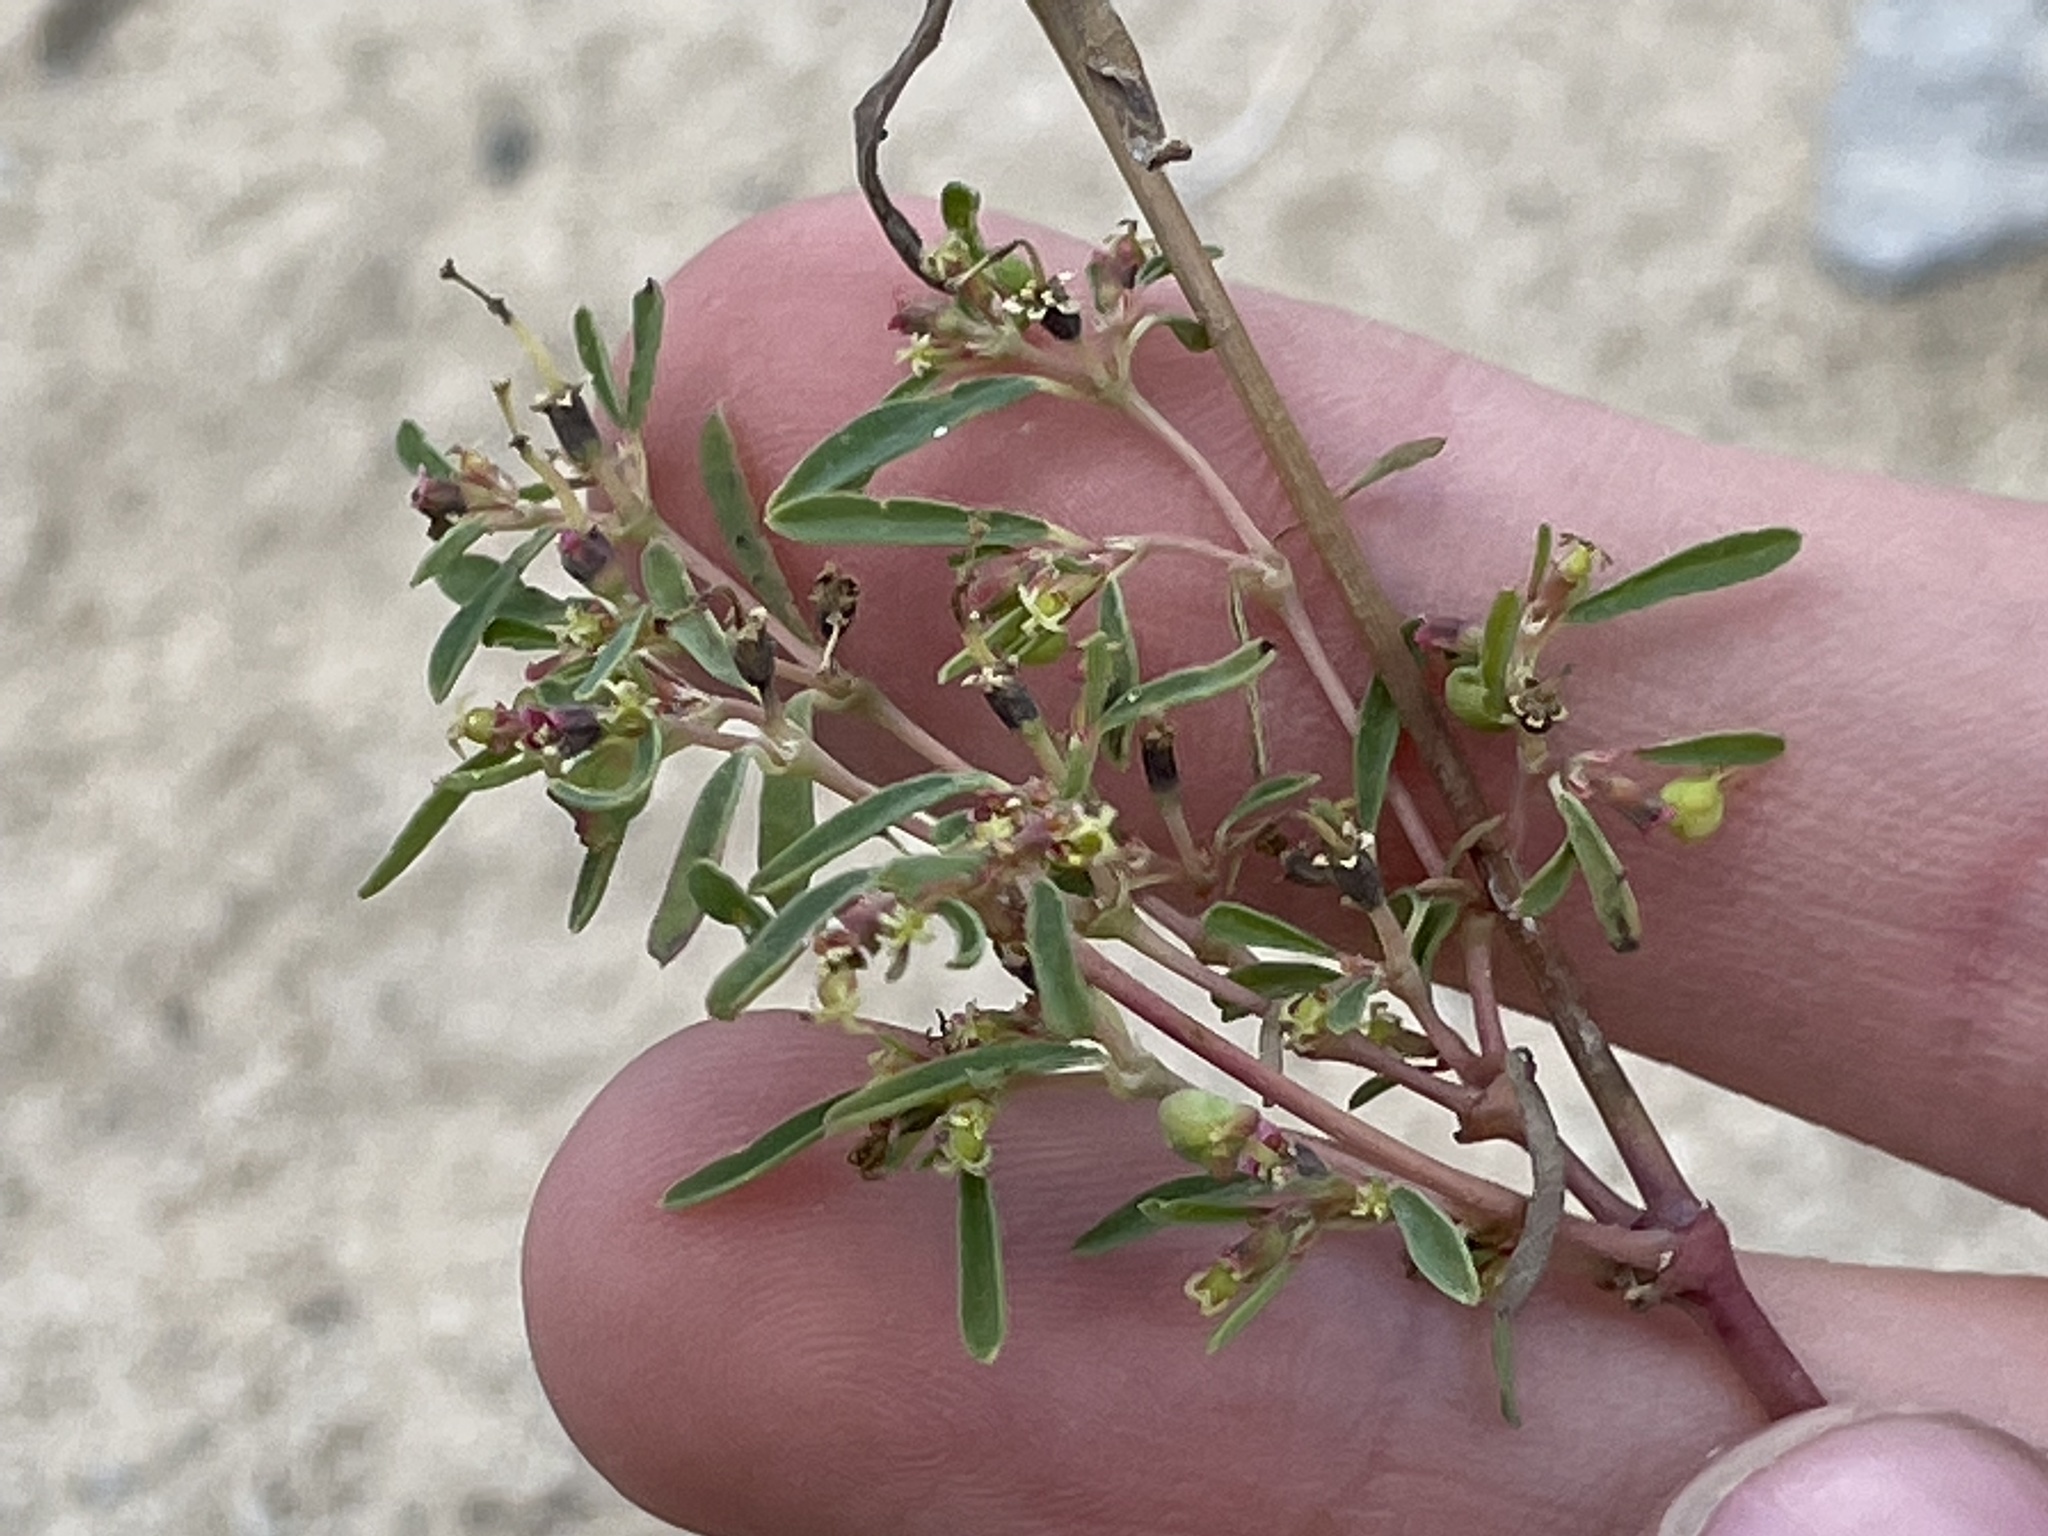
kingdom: Plantae
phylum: Tracheophyta
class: Magnoliopsida
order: Malpighiales
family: Euphorbiaceae
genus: Euphorbia
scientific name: Euphorbia missurica
